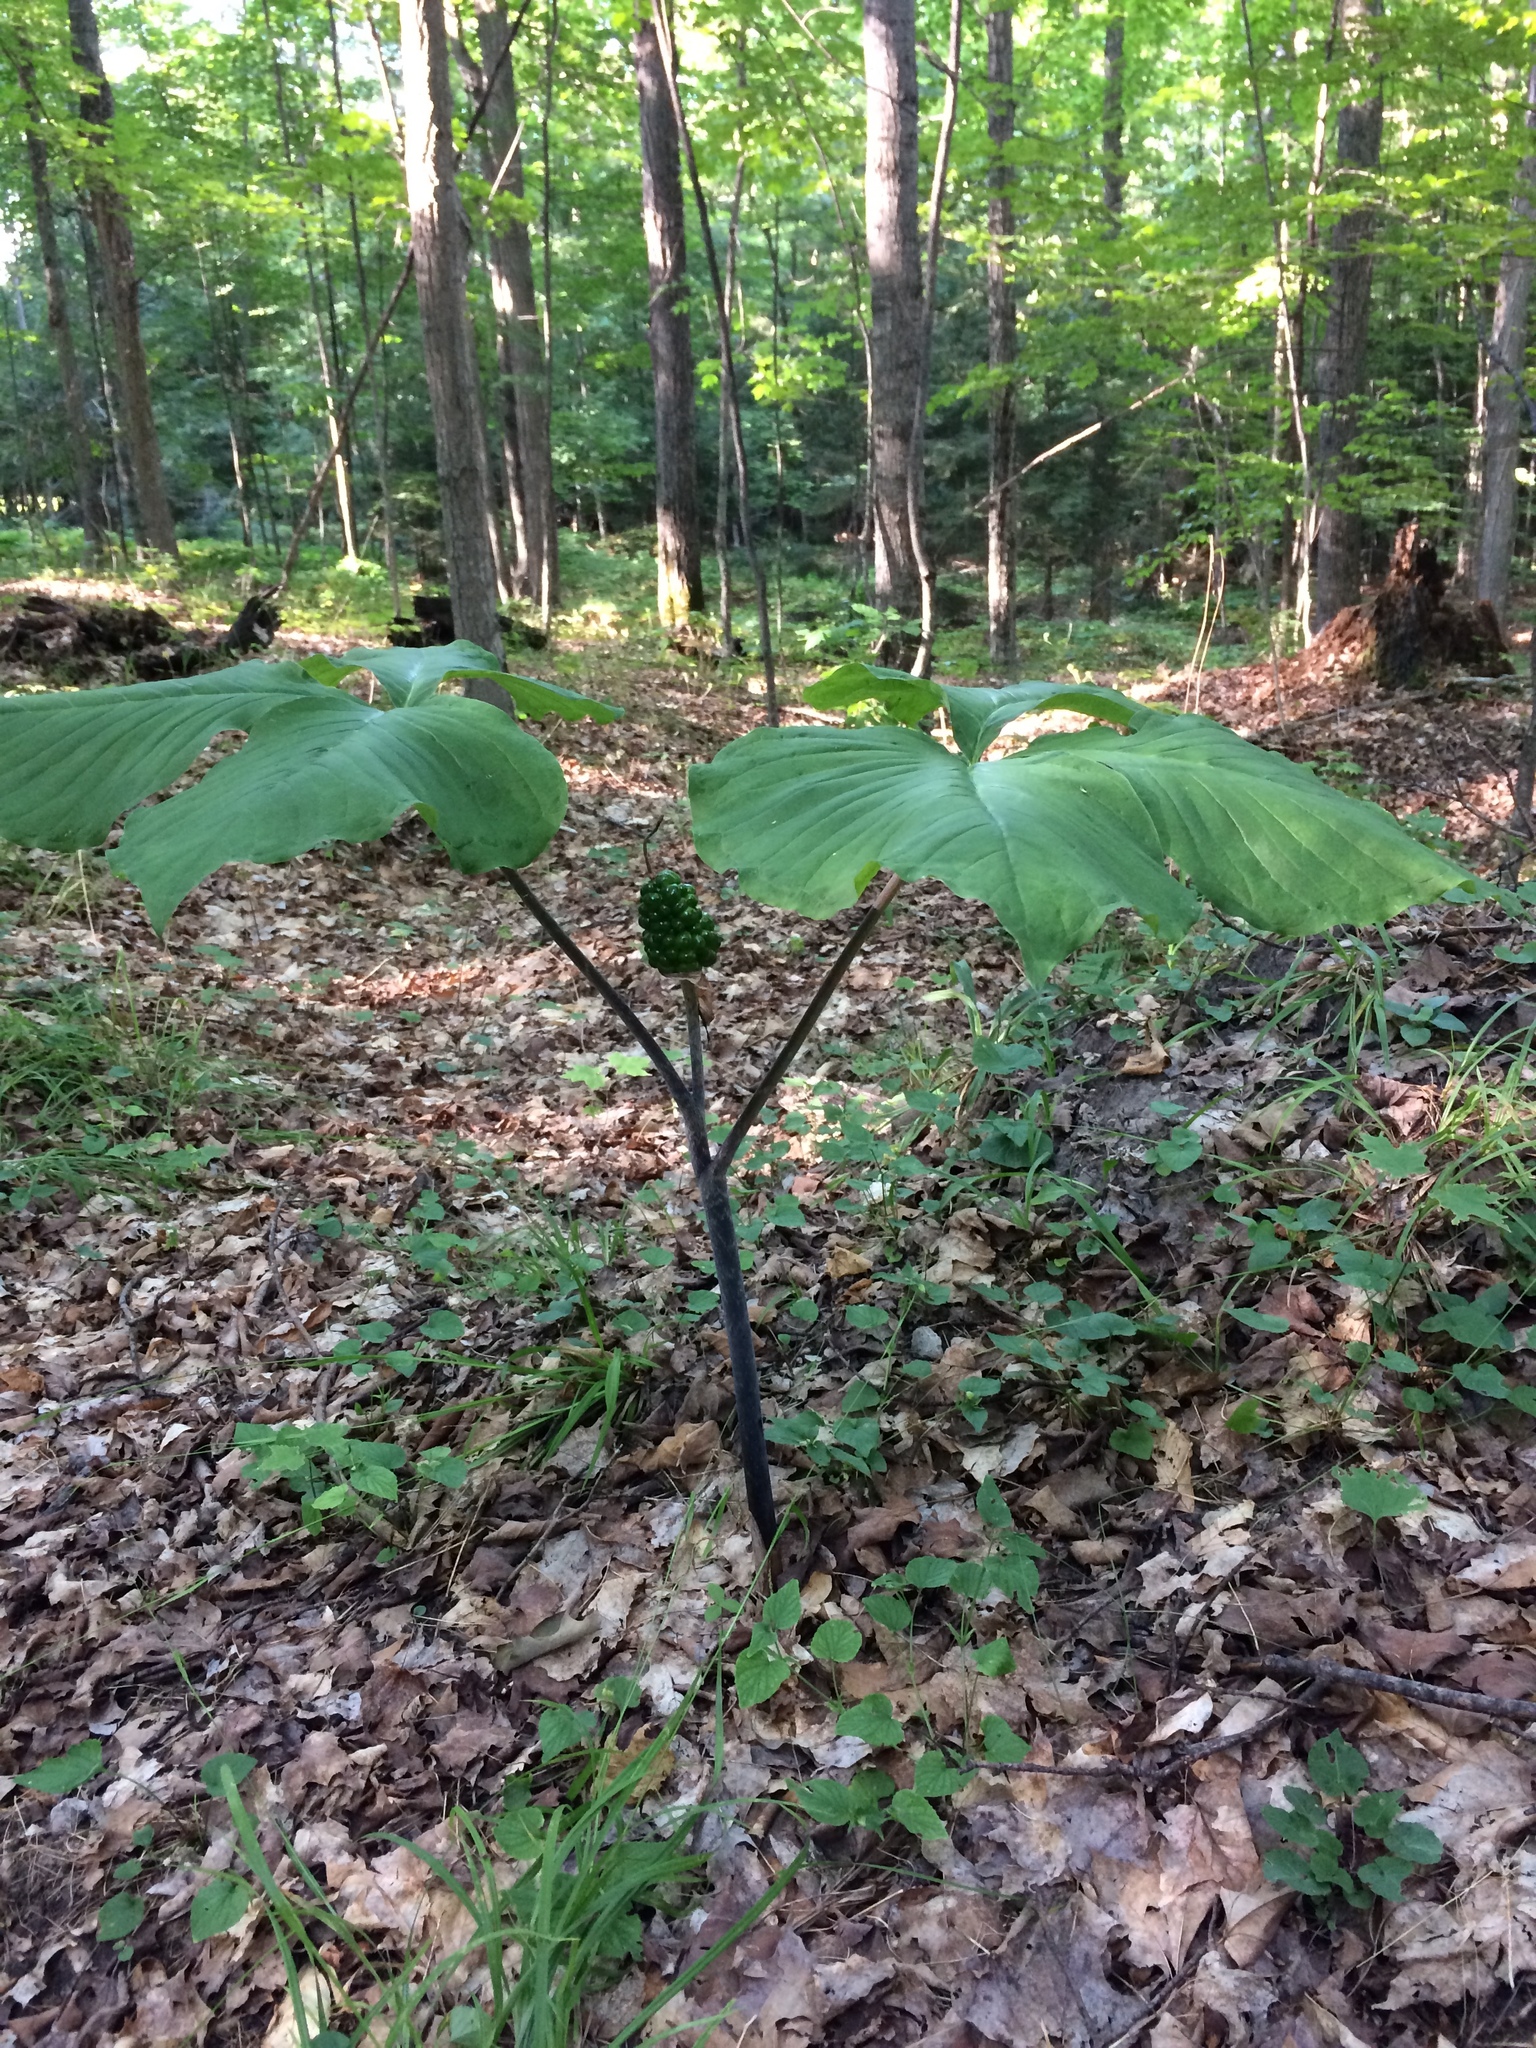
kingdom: Plantae
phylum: Tracheophyta
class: Liliopsida
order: Alismatales
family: Araceae
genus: Arisaema
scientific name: Arisaema triphyllum
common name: Jack-in-the-pulpit
